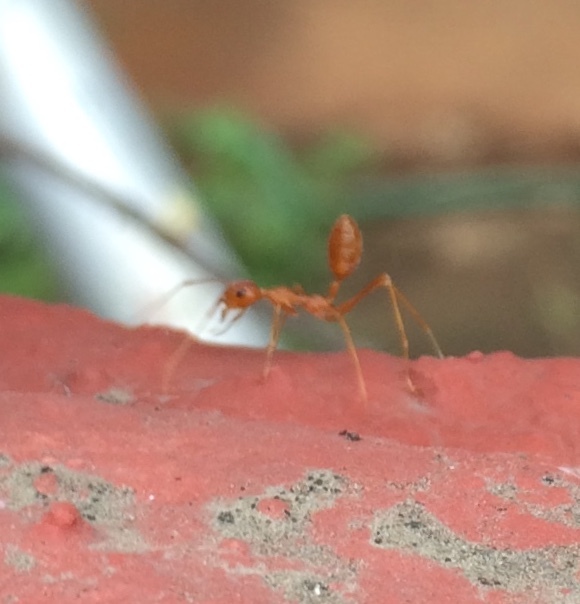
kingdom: Animalia
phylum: Arthropoda
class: Insecta
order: Hymenoptera
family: Formicidae
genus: Oecophylla
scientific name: Oecophylla smaragdina
